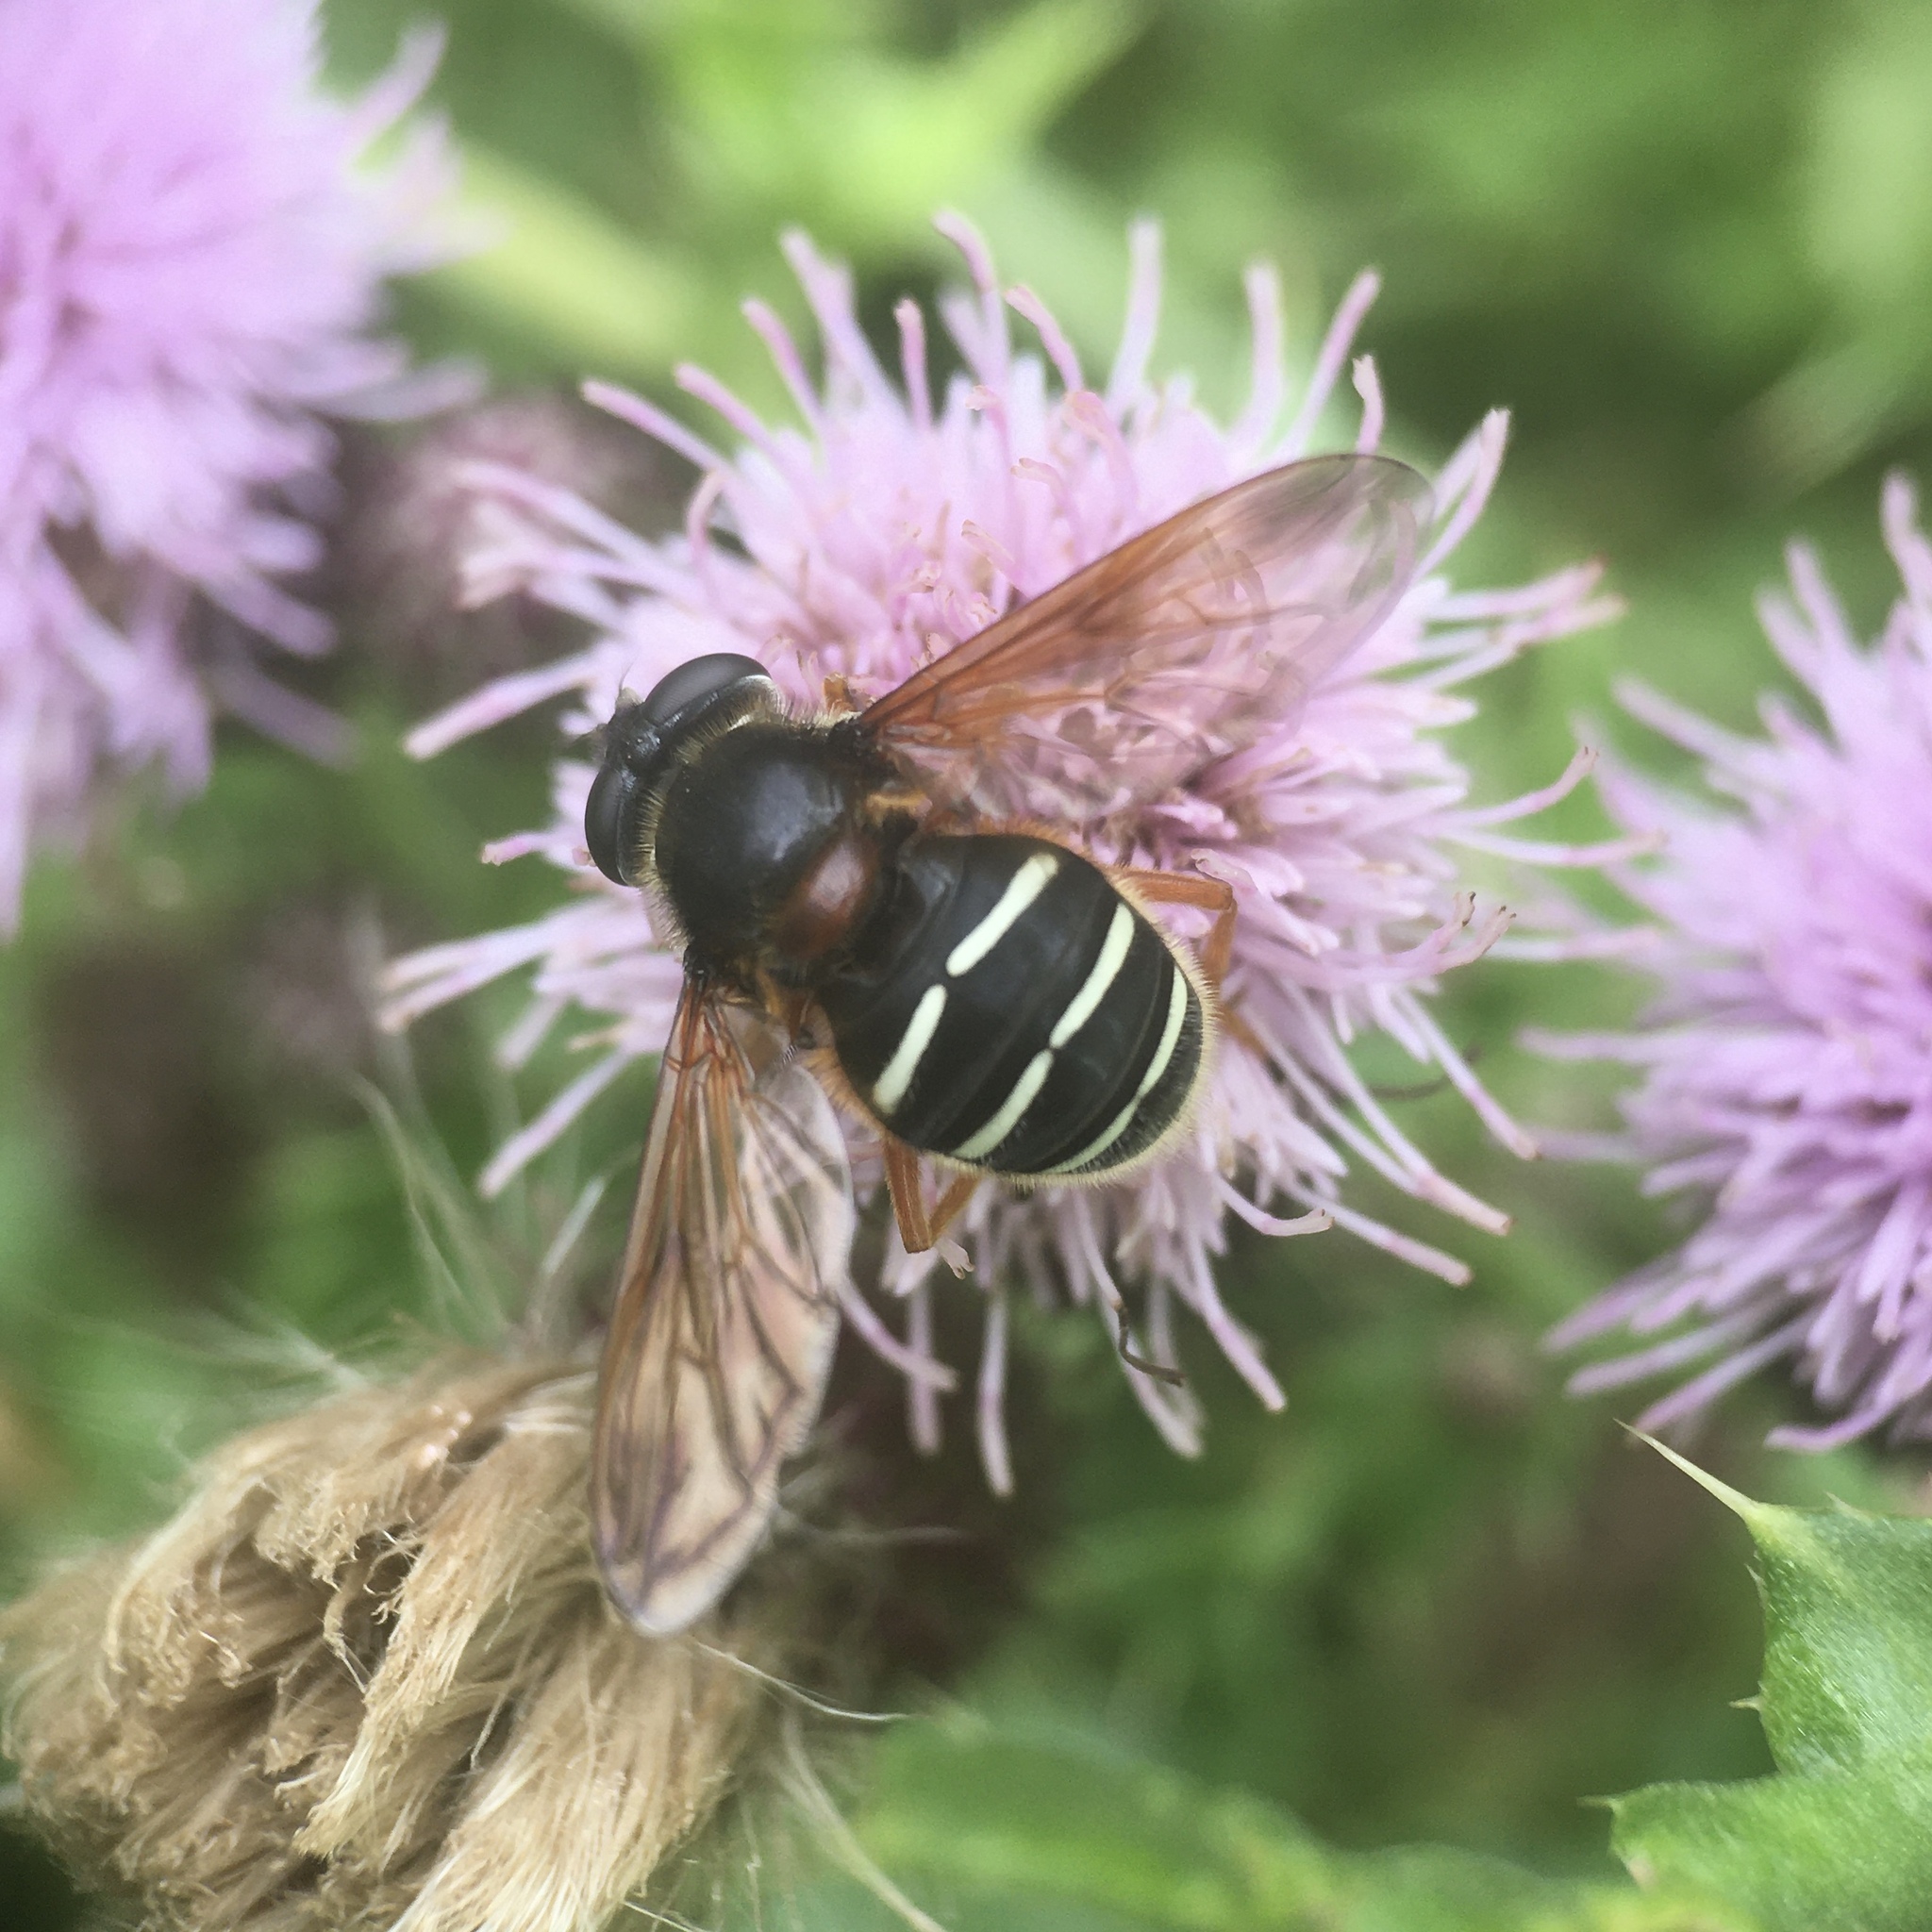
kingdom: Animalia
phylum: Arthropoda
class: Insecta
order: Diptera
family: Syrphidae
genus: Sericomyia
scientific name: Sericomyia lappona
